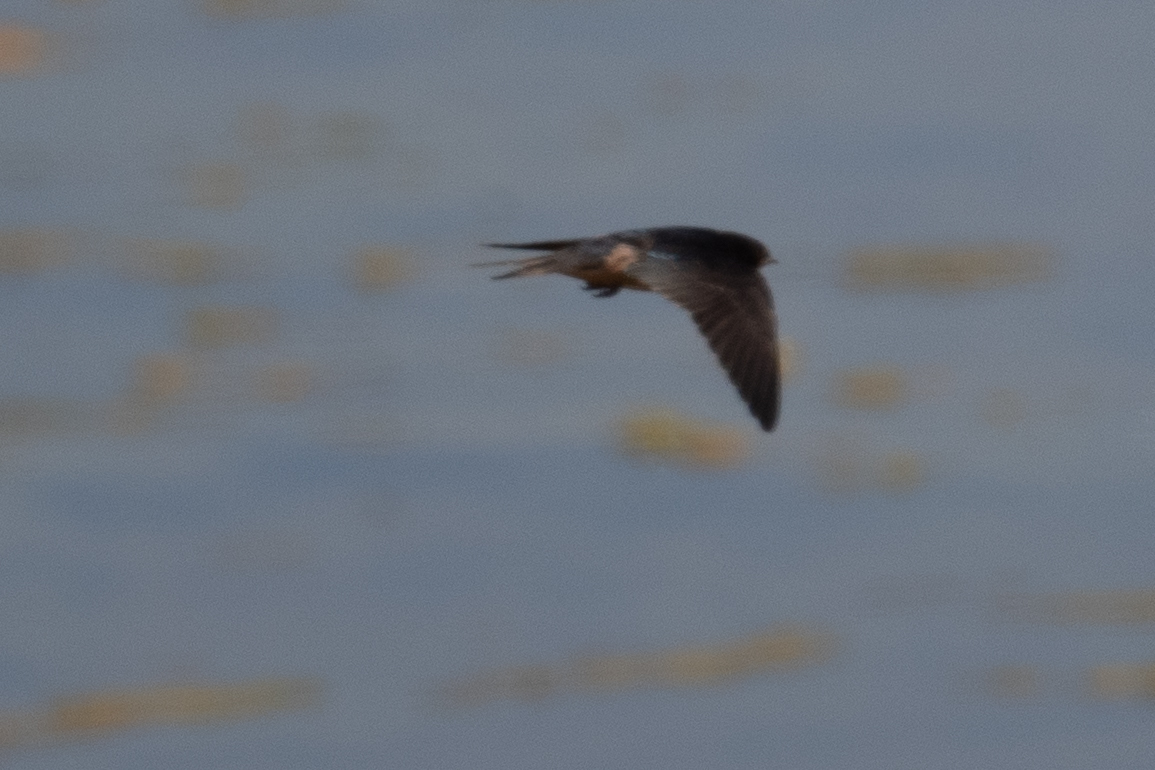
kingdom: Animalia
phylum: Chordata
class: Aves
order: Passeriformes
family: Hirundinidae
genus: Hirundo
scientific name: Hirundo rustica
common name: Barn swallow
